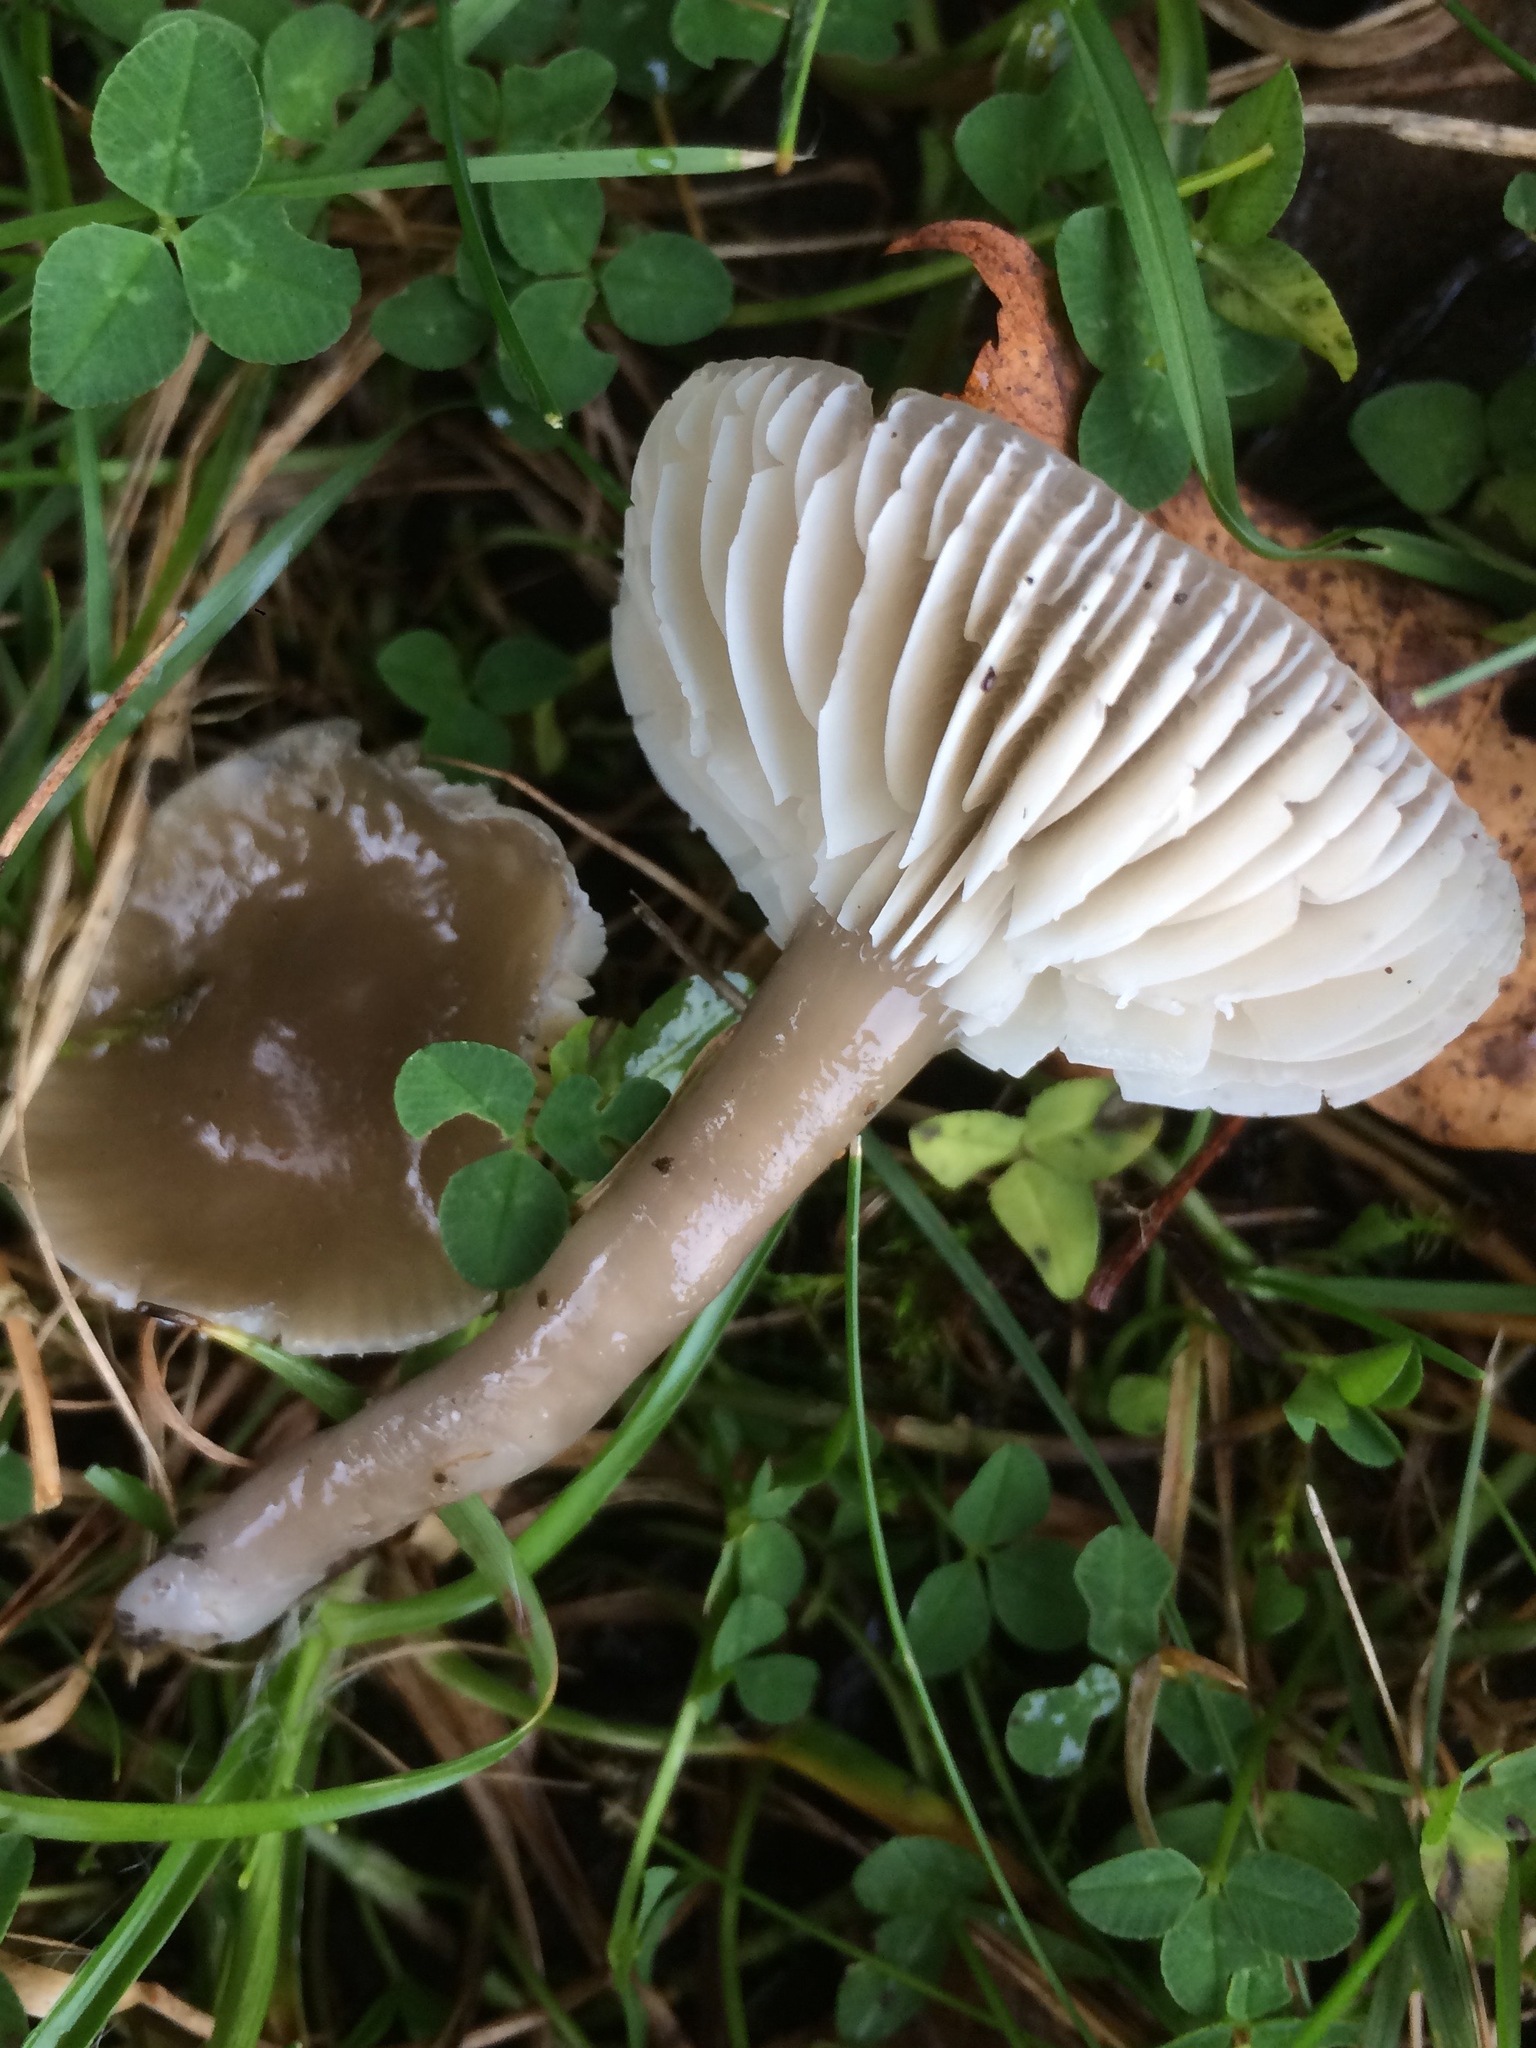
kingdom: Fungi
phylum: Basidiomycota
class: Agaricomycetes
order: Agaricales
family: Hygrophoraceae
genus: Gliophorus
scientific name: Gliophorus irrigatus
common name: Slimy waxcap
